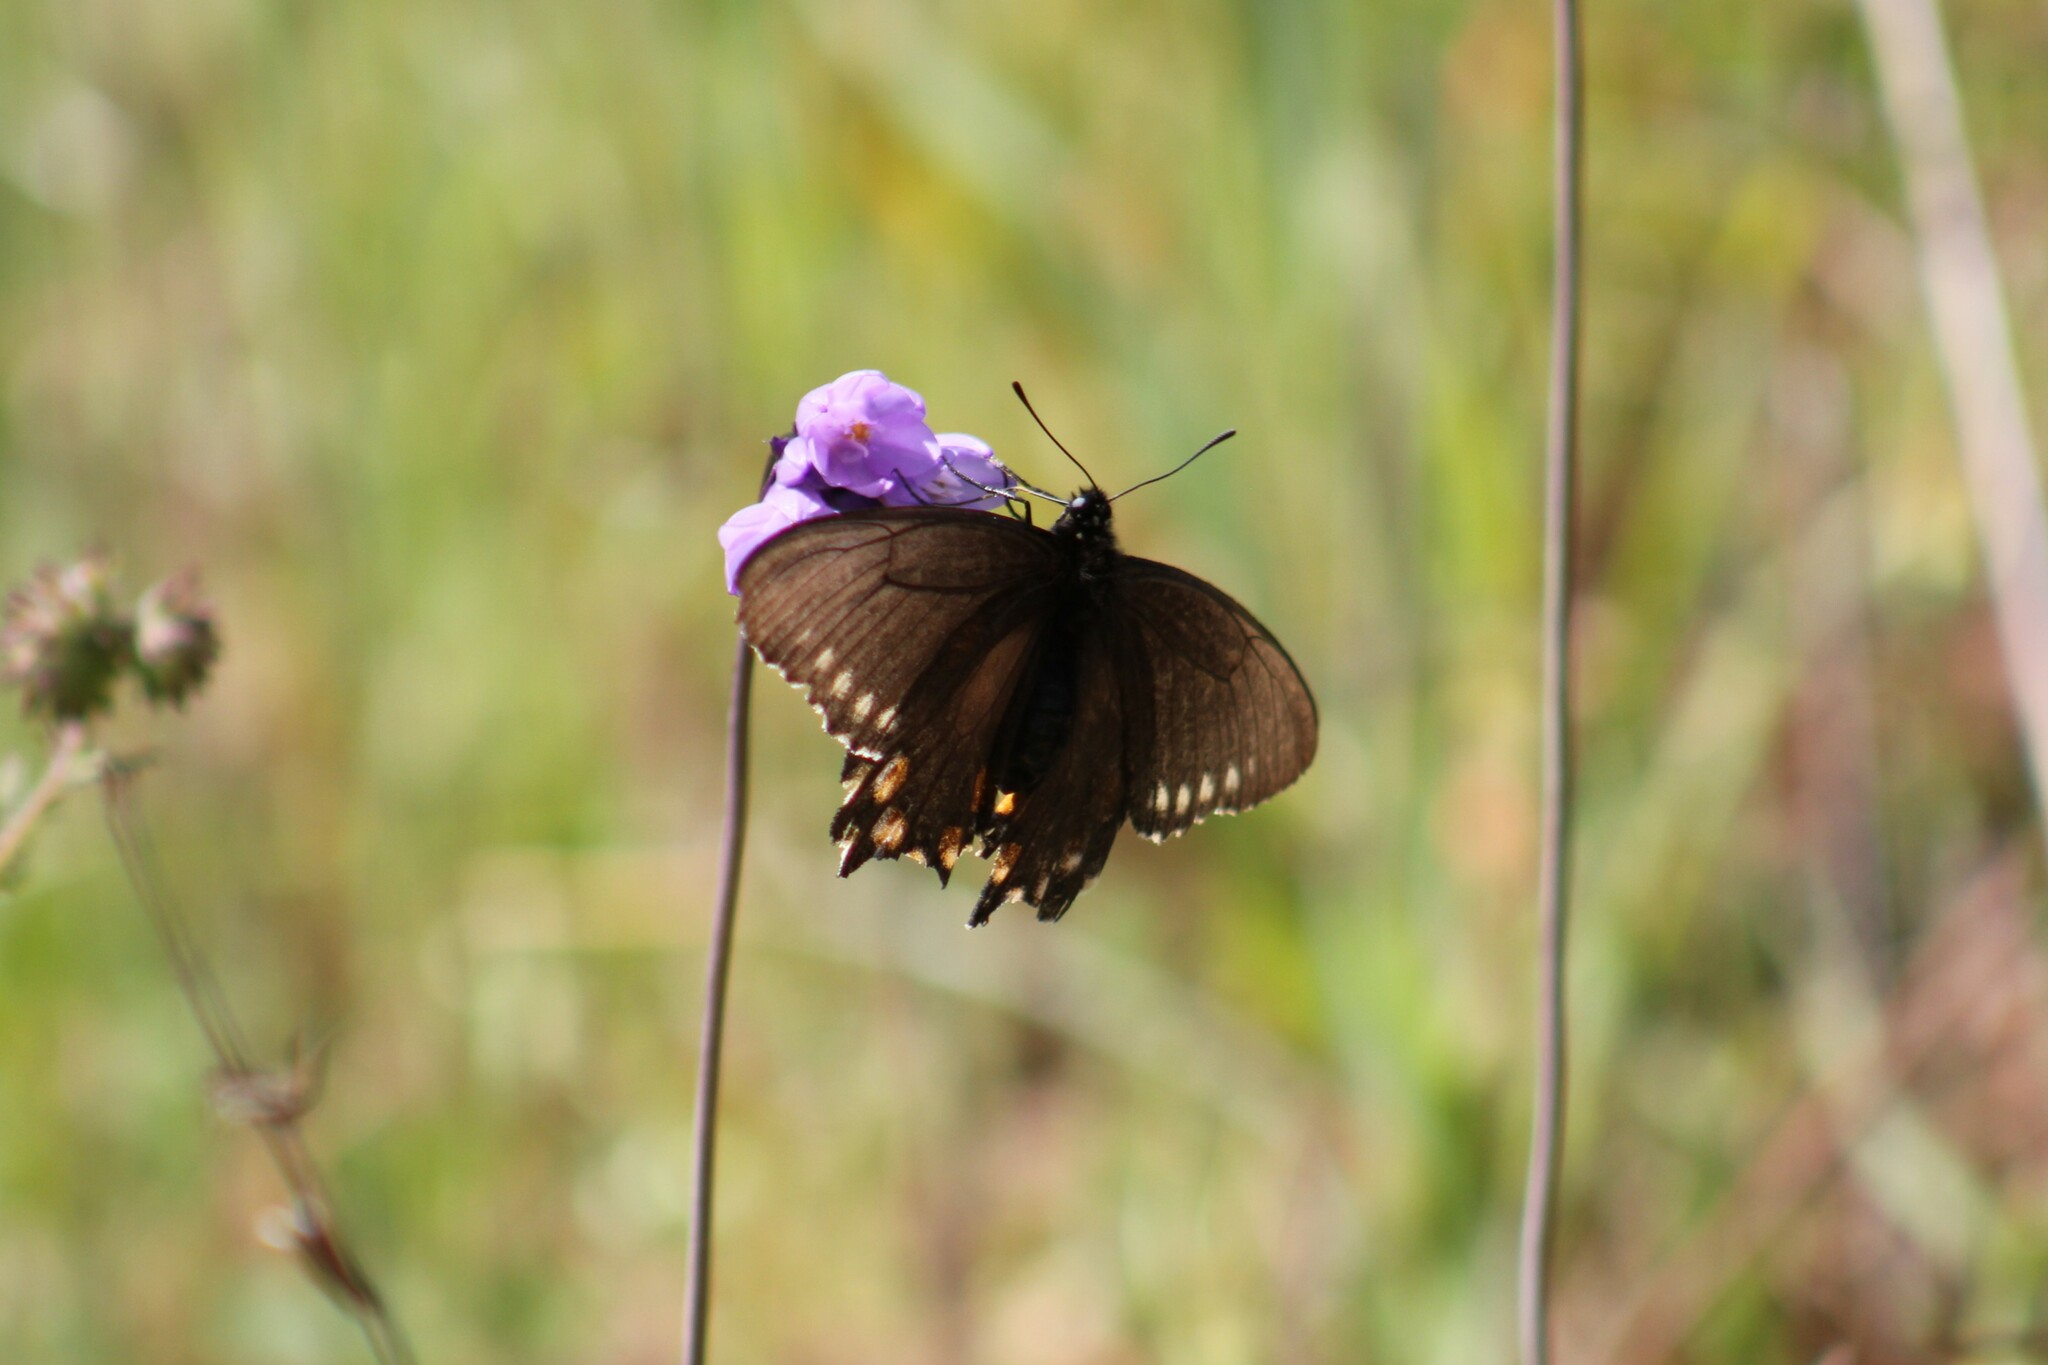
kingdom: Animalia
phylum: Arthropoda
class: Insecta
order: Lepidoptera
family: Papilionidae
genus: Battus
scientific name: Battus philenor
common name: Pipevine swallowtail
